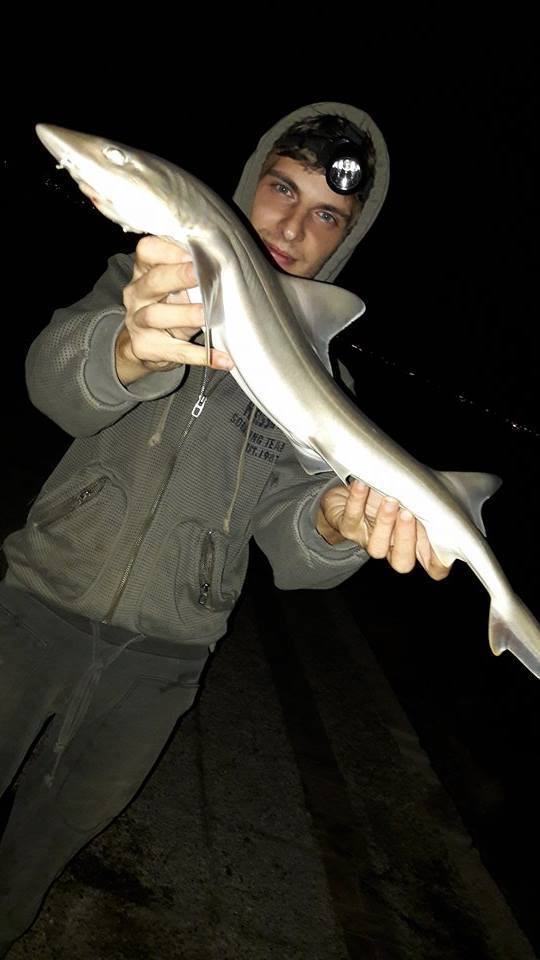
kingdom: Animalia
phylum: Chordata
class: Elasmobranchii
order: Carcharhiniformes
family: Triakidae
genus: Mustelus
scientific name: Mustelus mustelus
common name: Smooth-hound
